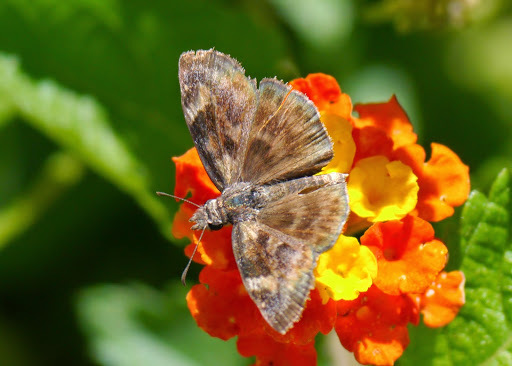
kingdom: Animalia
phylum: Arthropoda
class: Insecta
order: Lepidoptera
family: Hesperiidae
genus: Gesta
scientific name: Gesta gesta
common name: Gesta duskywing
